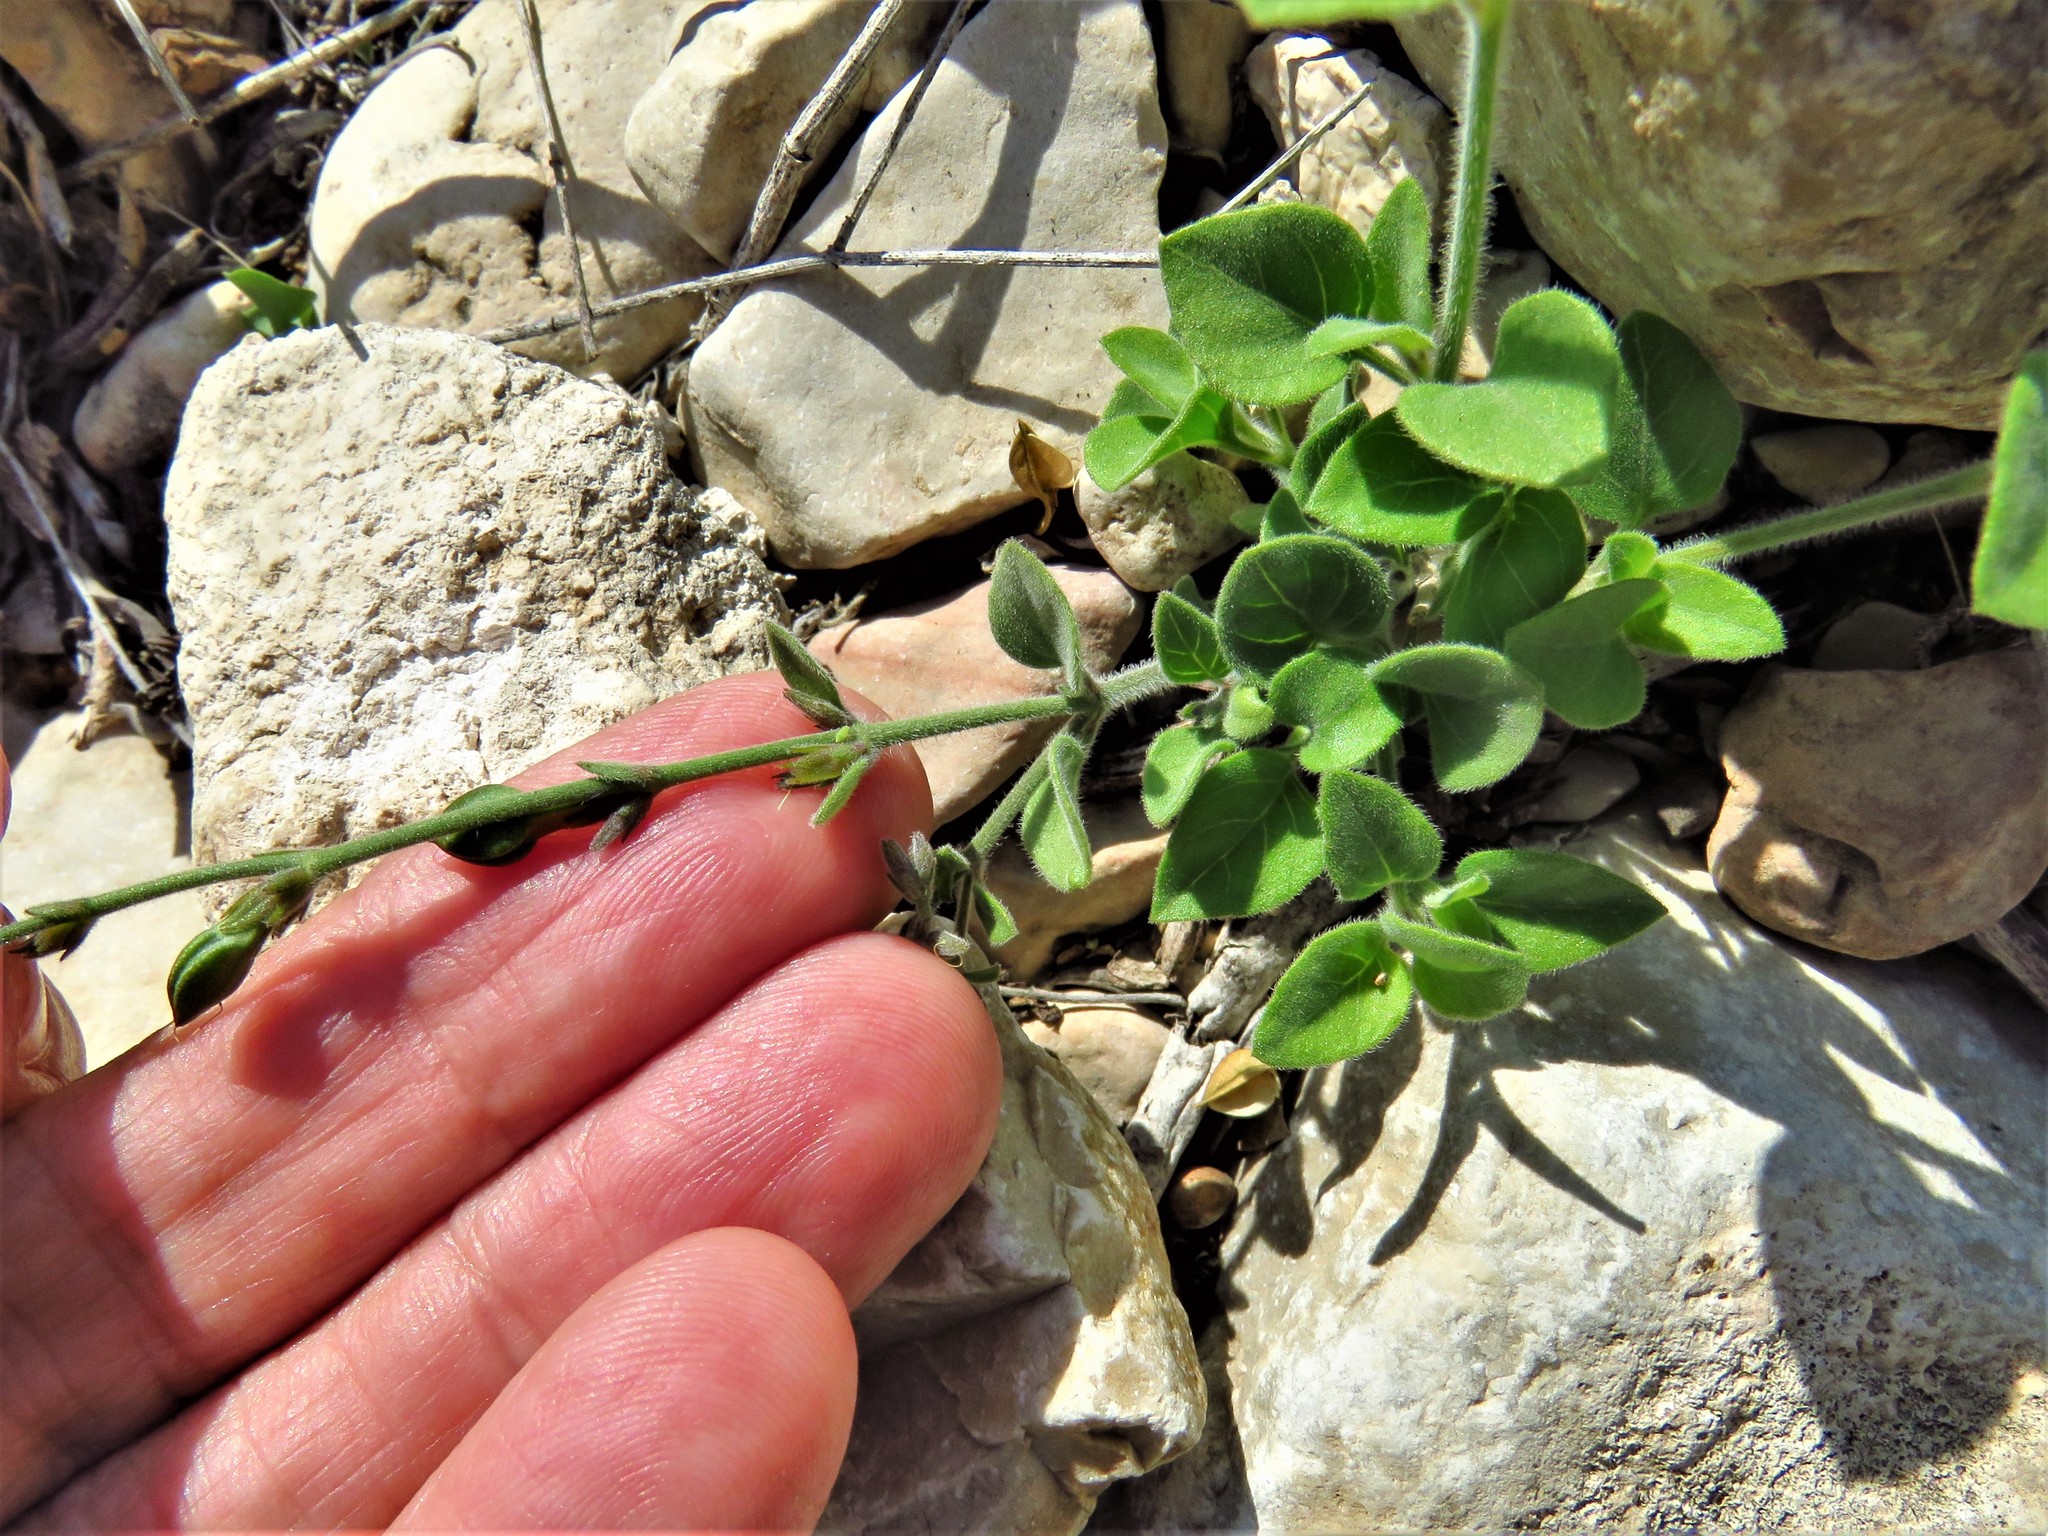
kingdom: Plantae
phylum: Tracheophyta
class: Magnoliopsida
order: Lamiales
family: Acanthaceae
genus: Carlowrightia
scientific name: Carlowrightia torreyana
